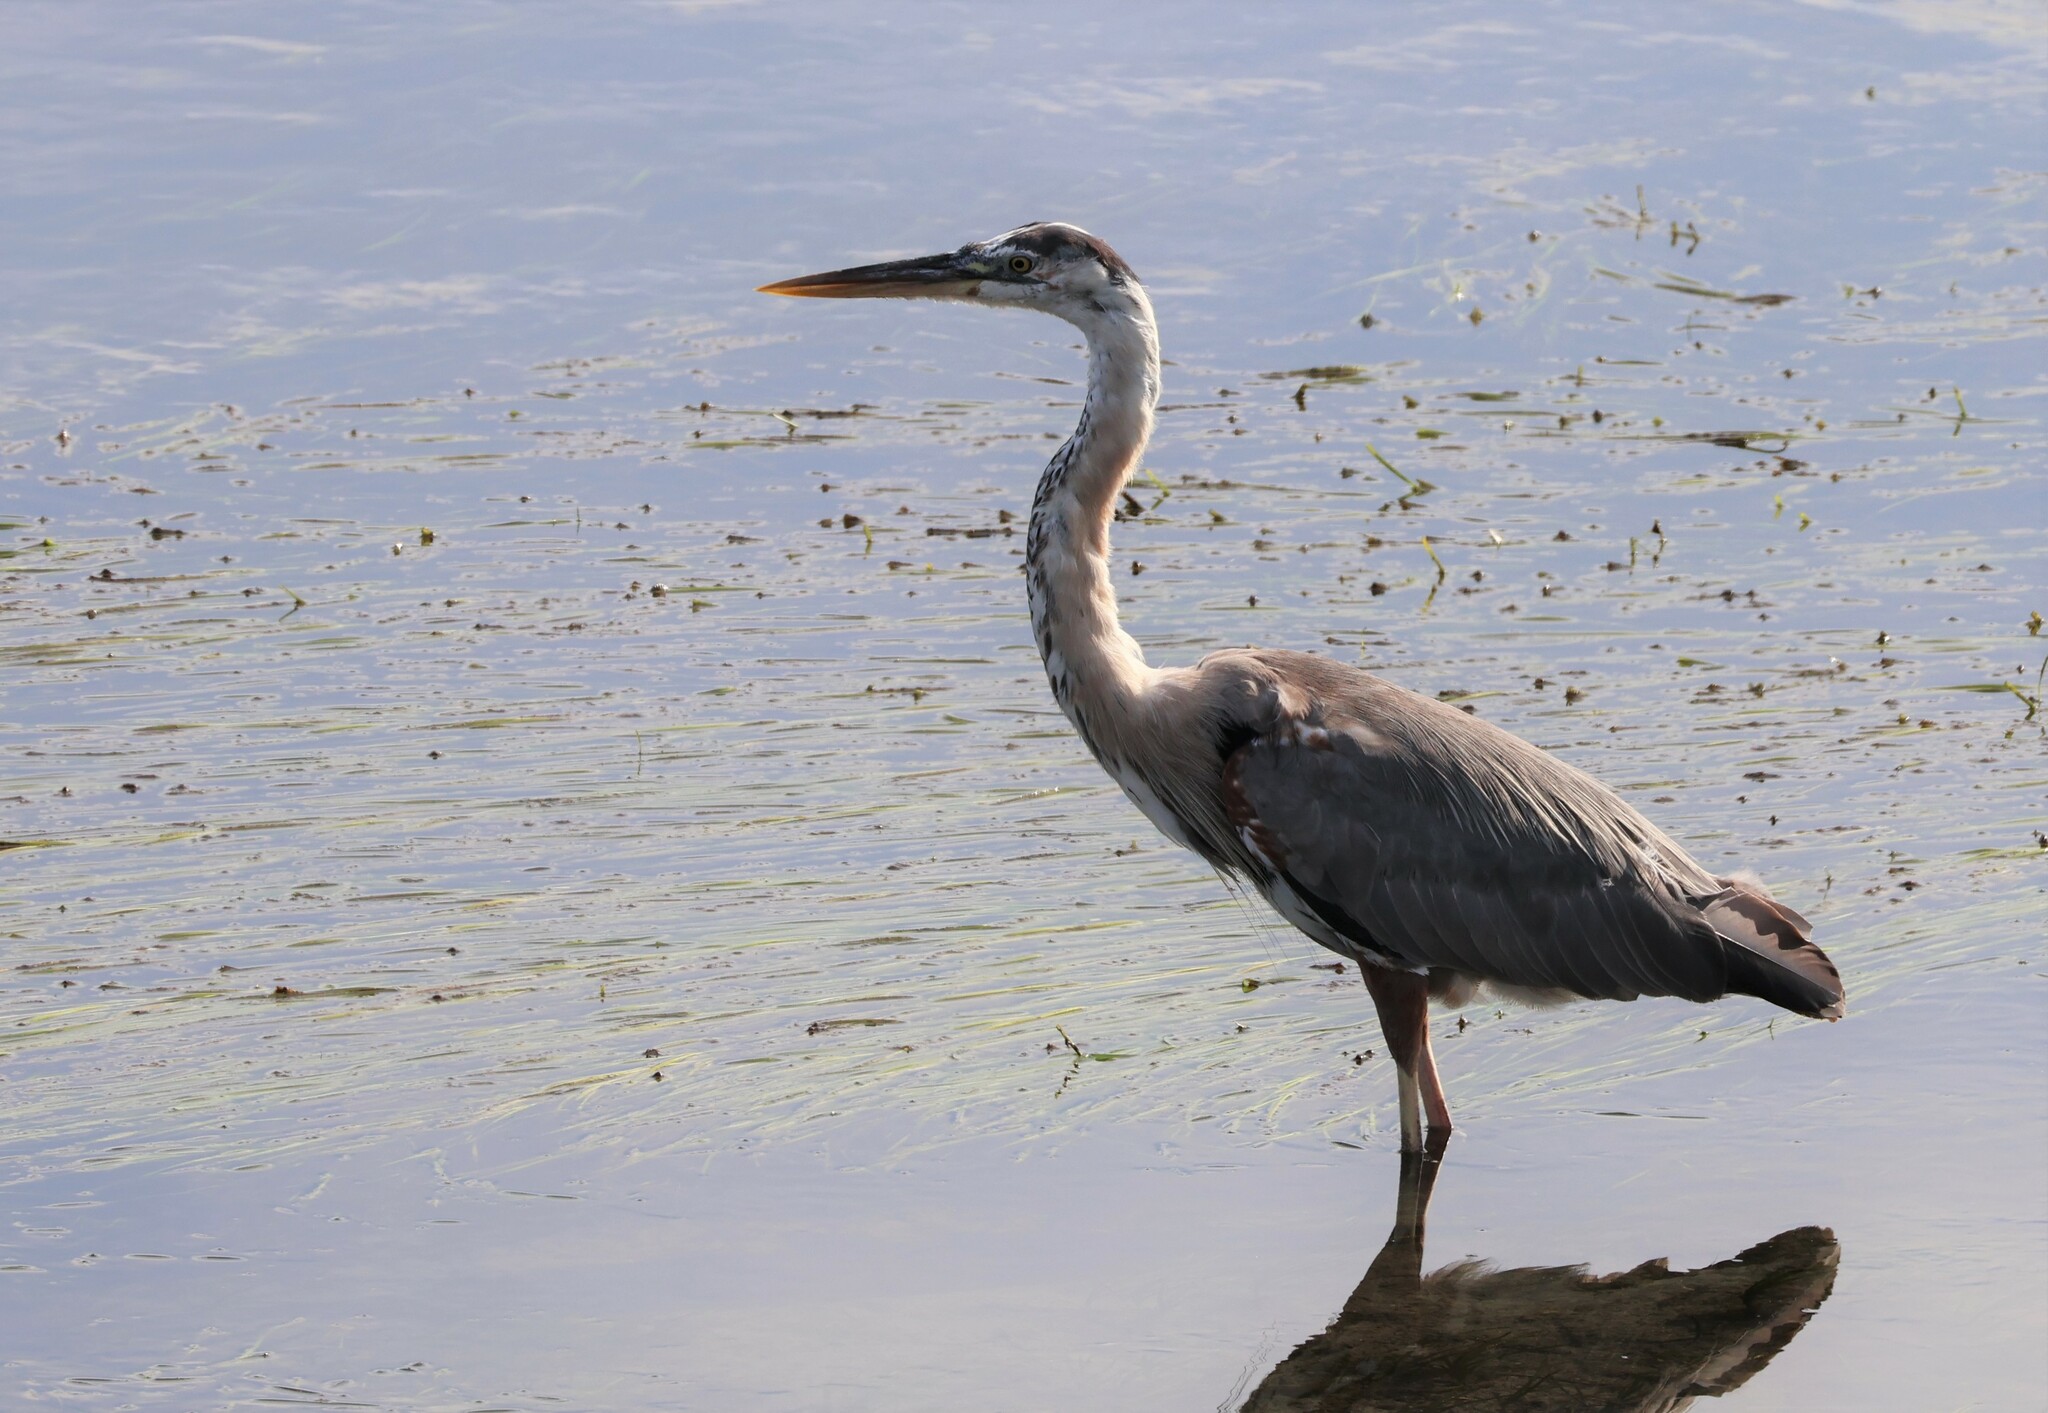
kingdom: Animalia
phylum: Chordata
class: Aves
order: Pelecaniformes
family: Ardeidae
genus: Ardea
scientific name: Ardea herodias
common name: Great blue heron
